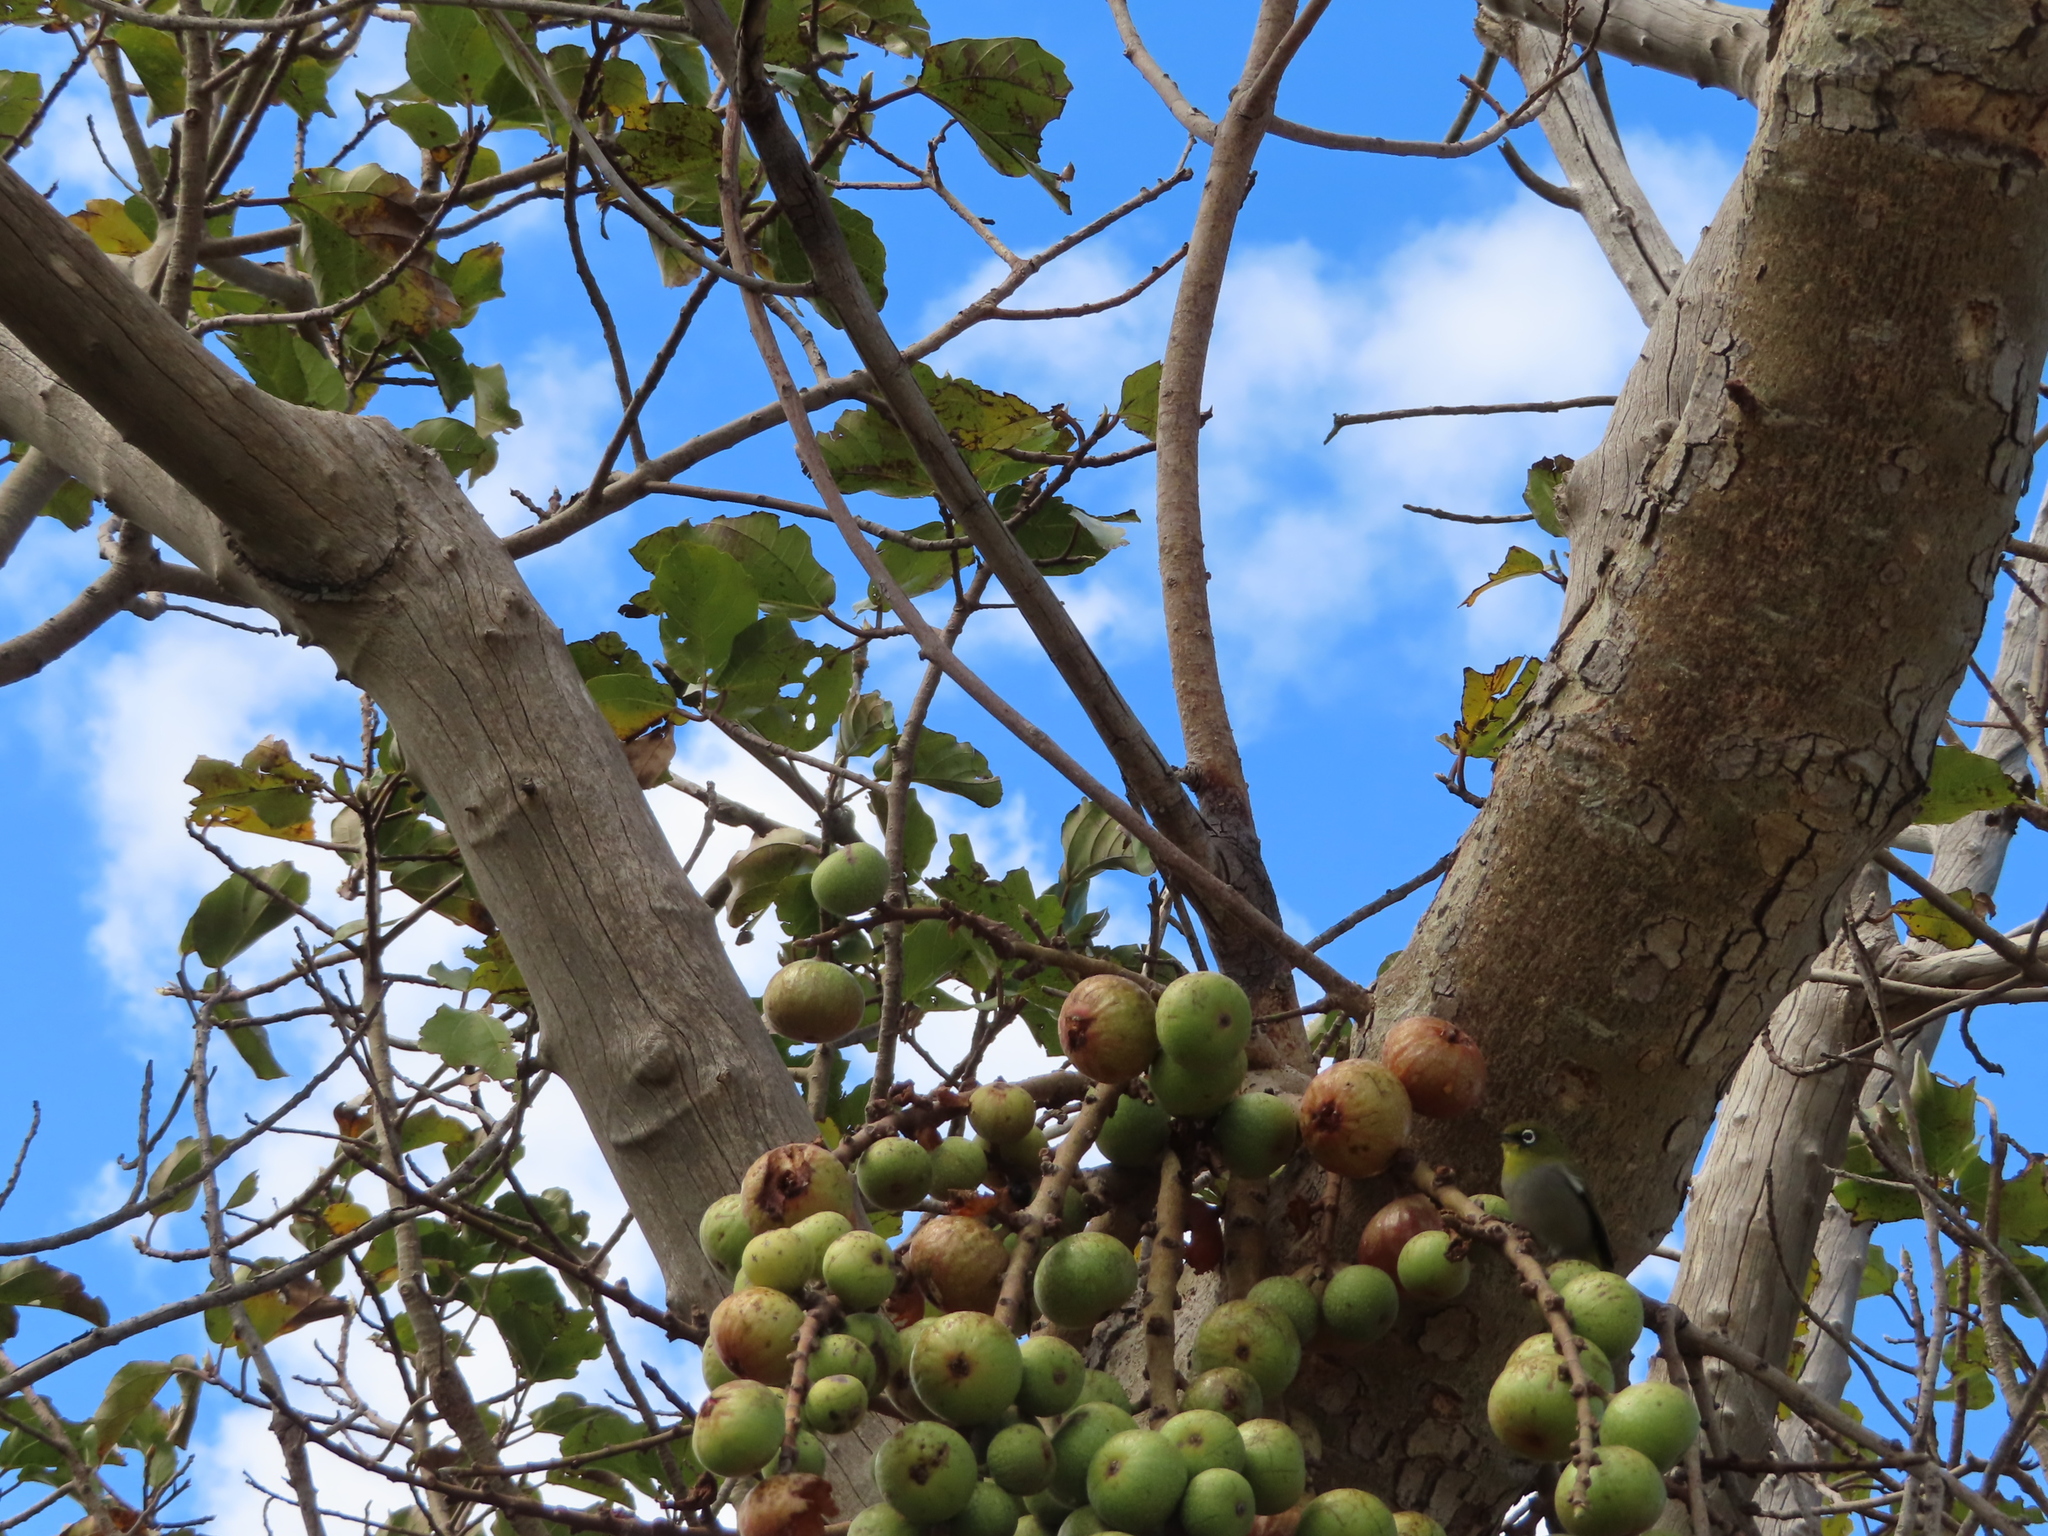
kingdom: Animalia
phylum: Chordata
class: Aves
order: Passeriformes
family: Zosteropidae
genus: Zosterops
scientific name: Zosterops virens
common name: Cape white-eye
